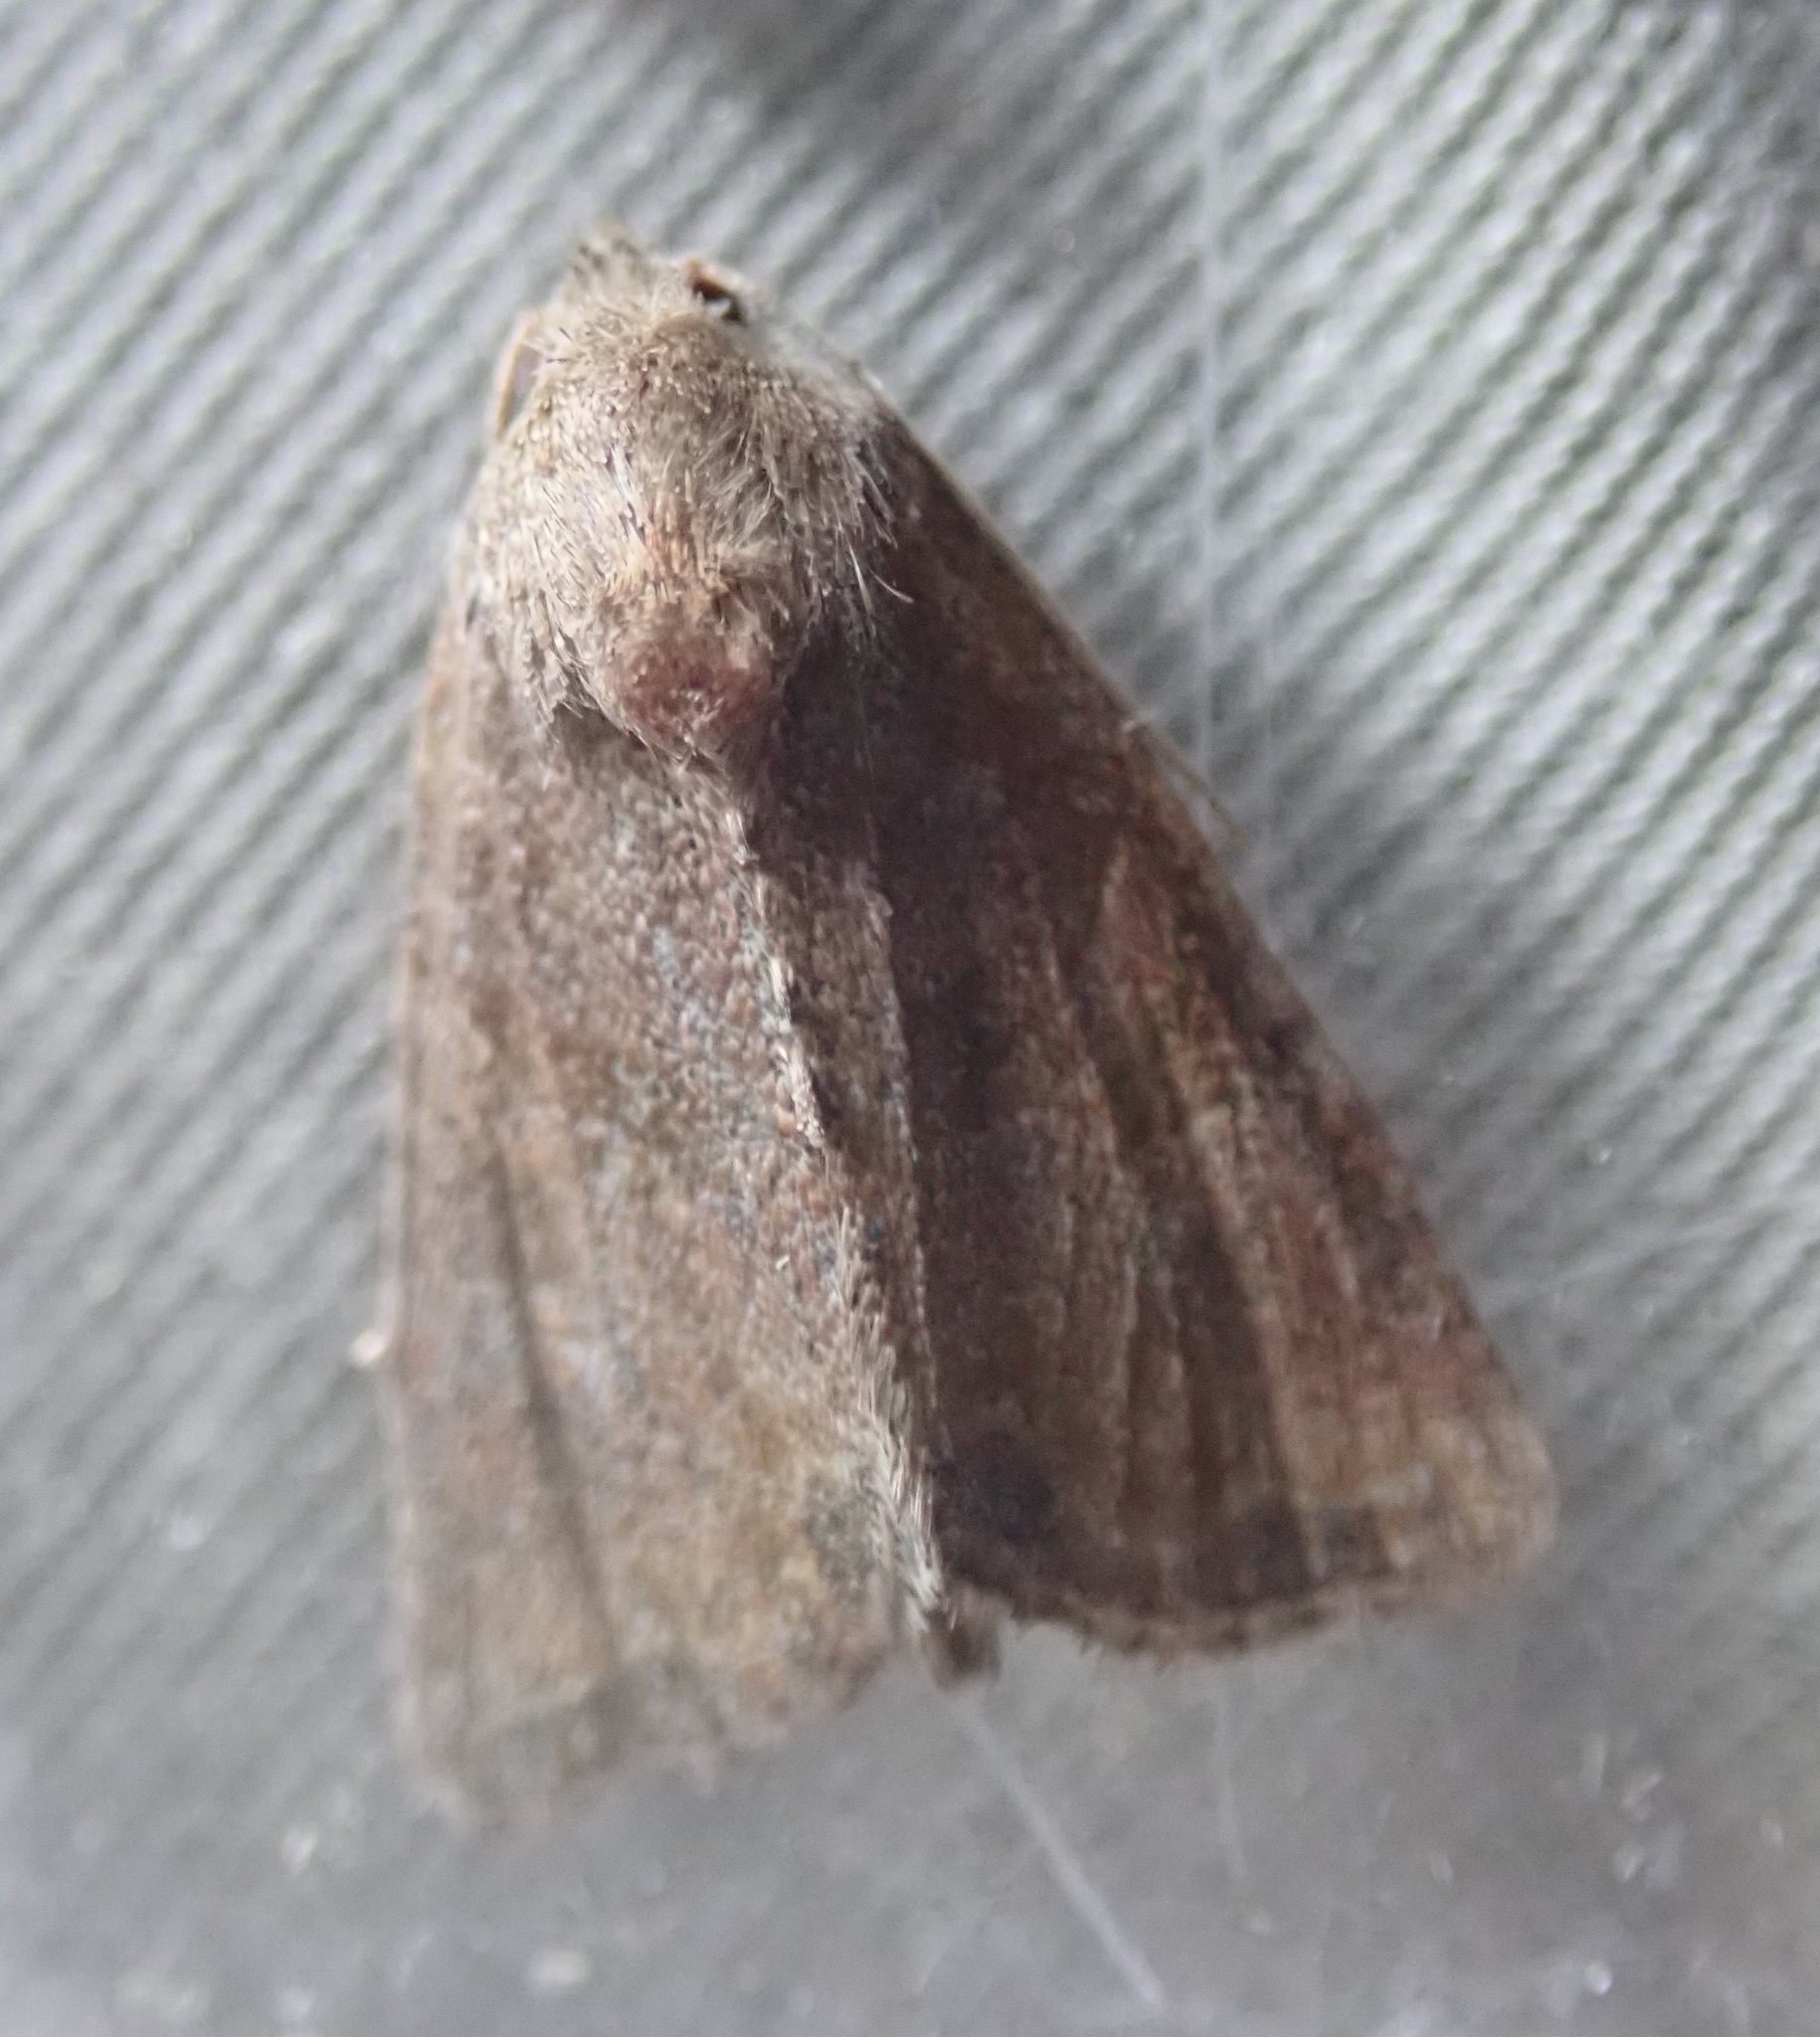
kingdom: Animalia
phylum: Arthropoda
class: Insecta
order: Lepidoptera
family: Noctuidae
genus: Mesoligia
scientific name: Mesoligia furuncula
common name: Cloaked minor
